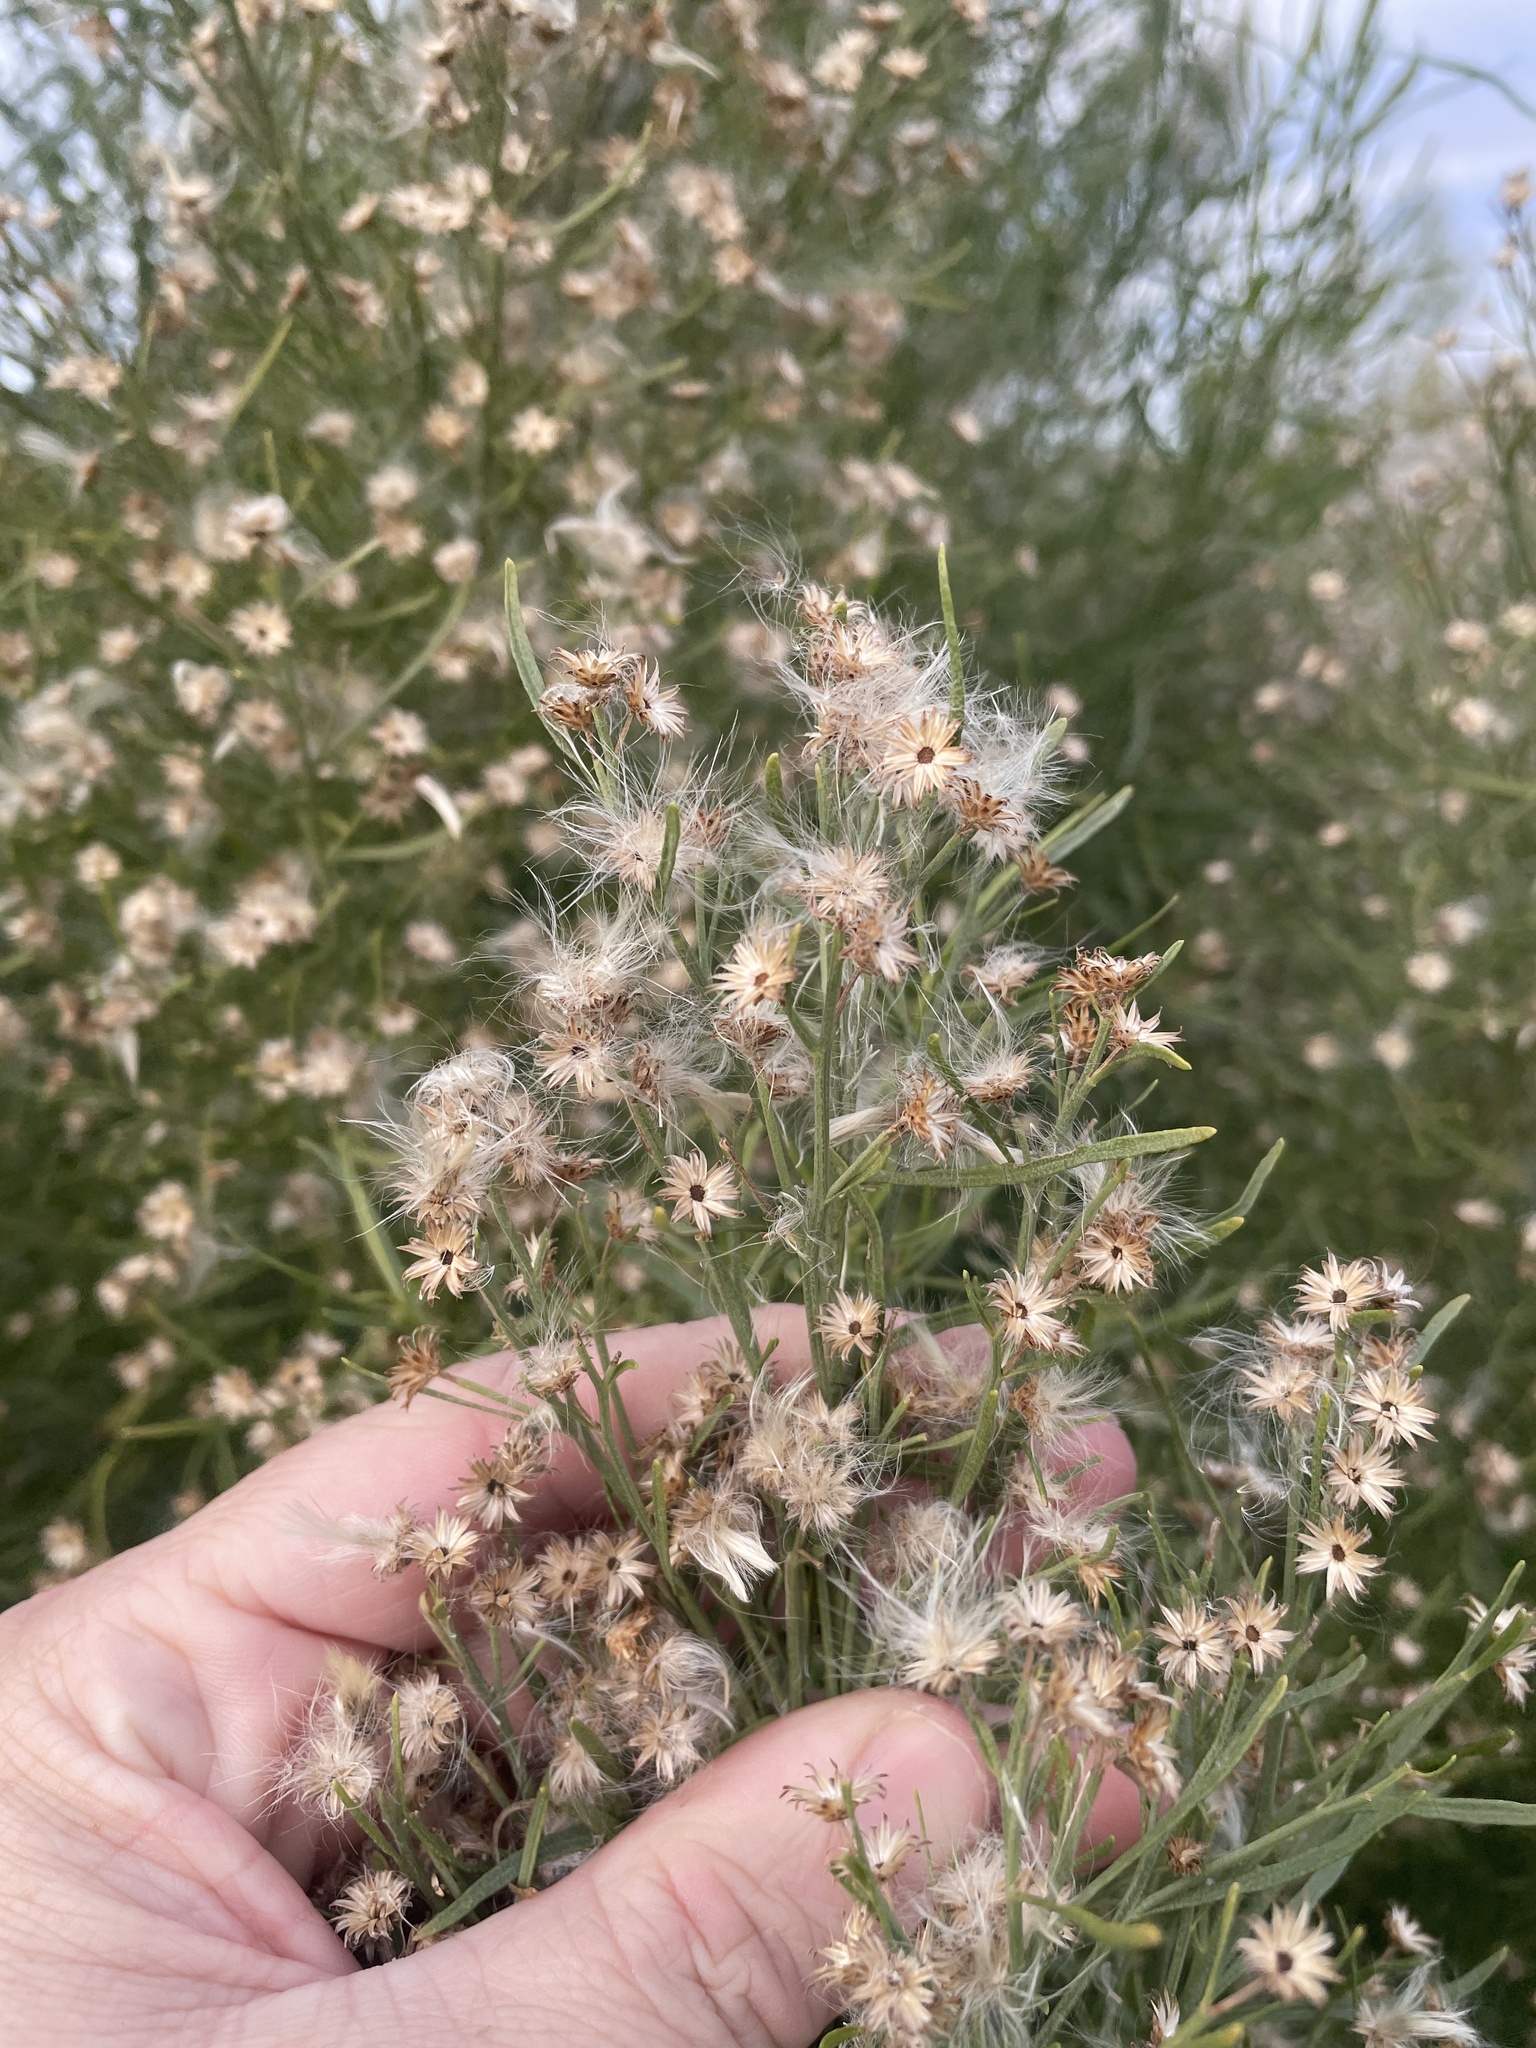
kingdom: Plantae
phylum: Tracheophyta
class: Magnoliopsida
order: Asterales
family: Asteraceae
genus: Baccharis
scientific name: Baccharis neglecta
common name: Roosevelt-weed
